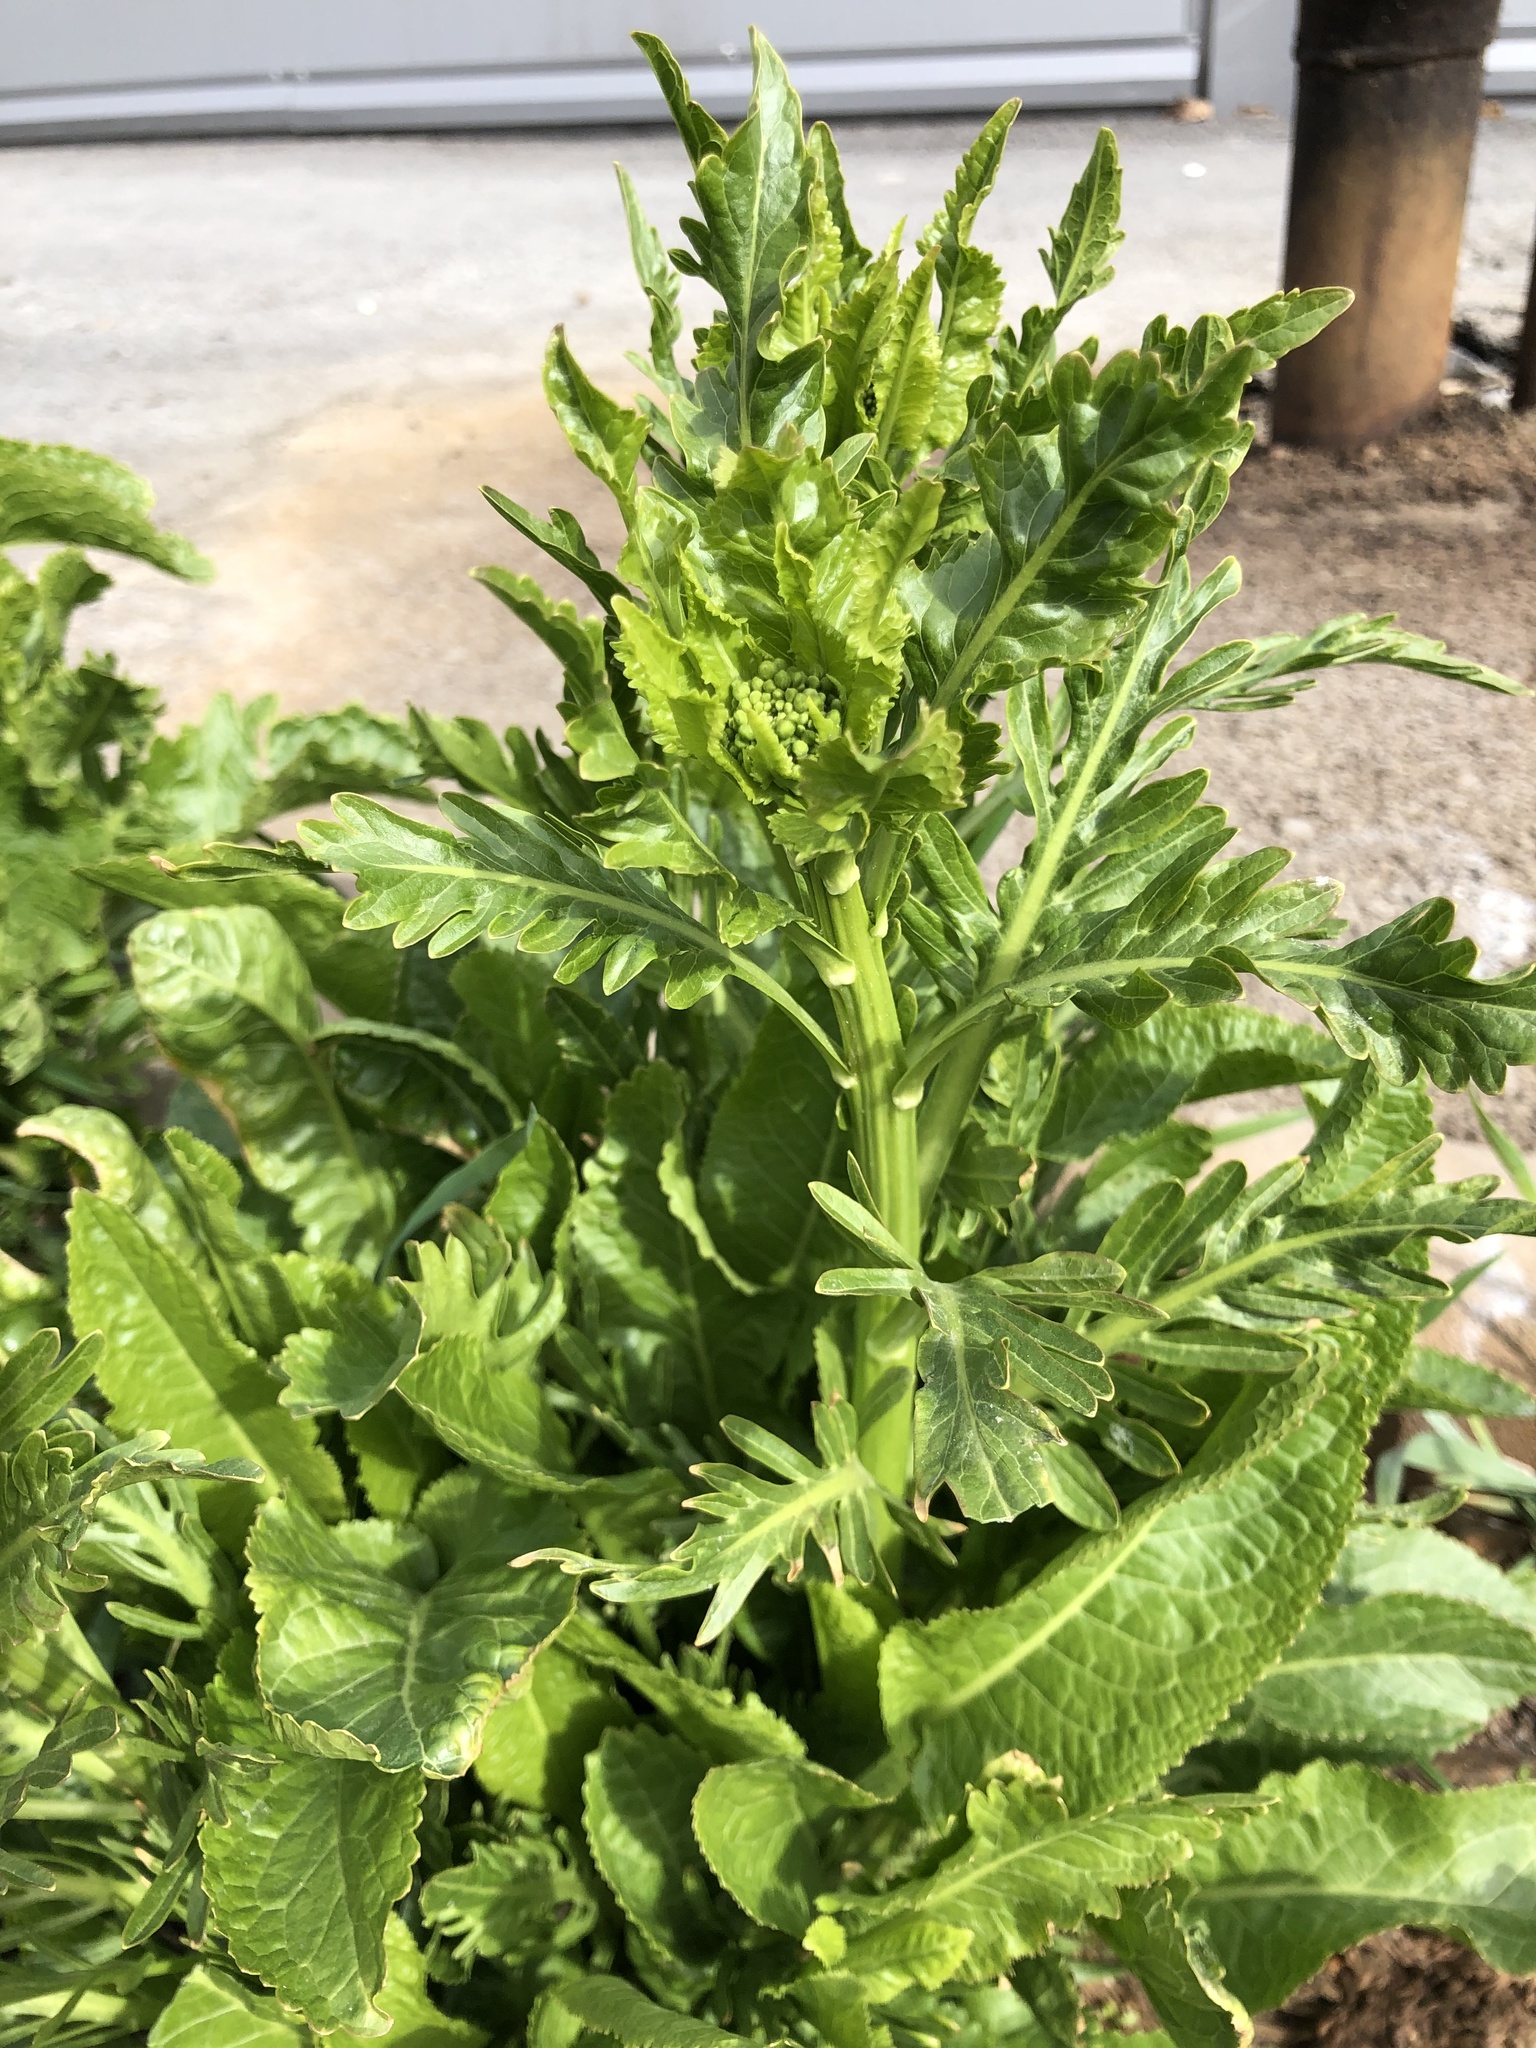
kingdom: Plantae
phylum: Tracheophyta
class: Magnoliopsida
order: Brassicales
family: Brassicaceae
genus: Armoracia
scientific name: Armoracia rusticana
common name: Horseradish
